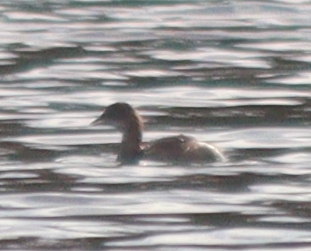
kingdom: Animalia
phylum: Chordata
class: Aves
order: Podicipediformes
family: Podicipedidae
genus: Tachybaptus
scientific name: Tachybaptus ruficollis
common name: Little grebe
